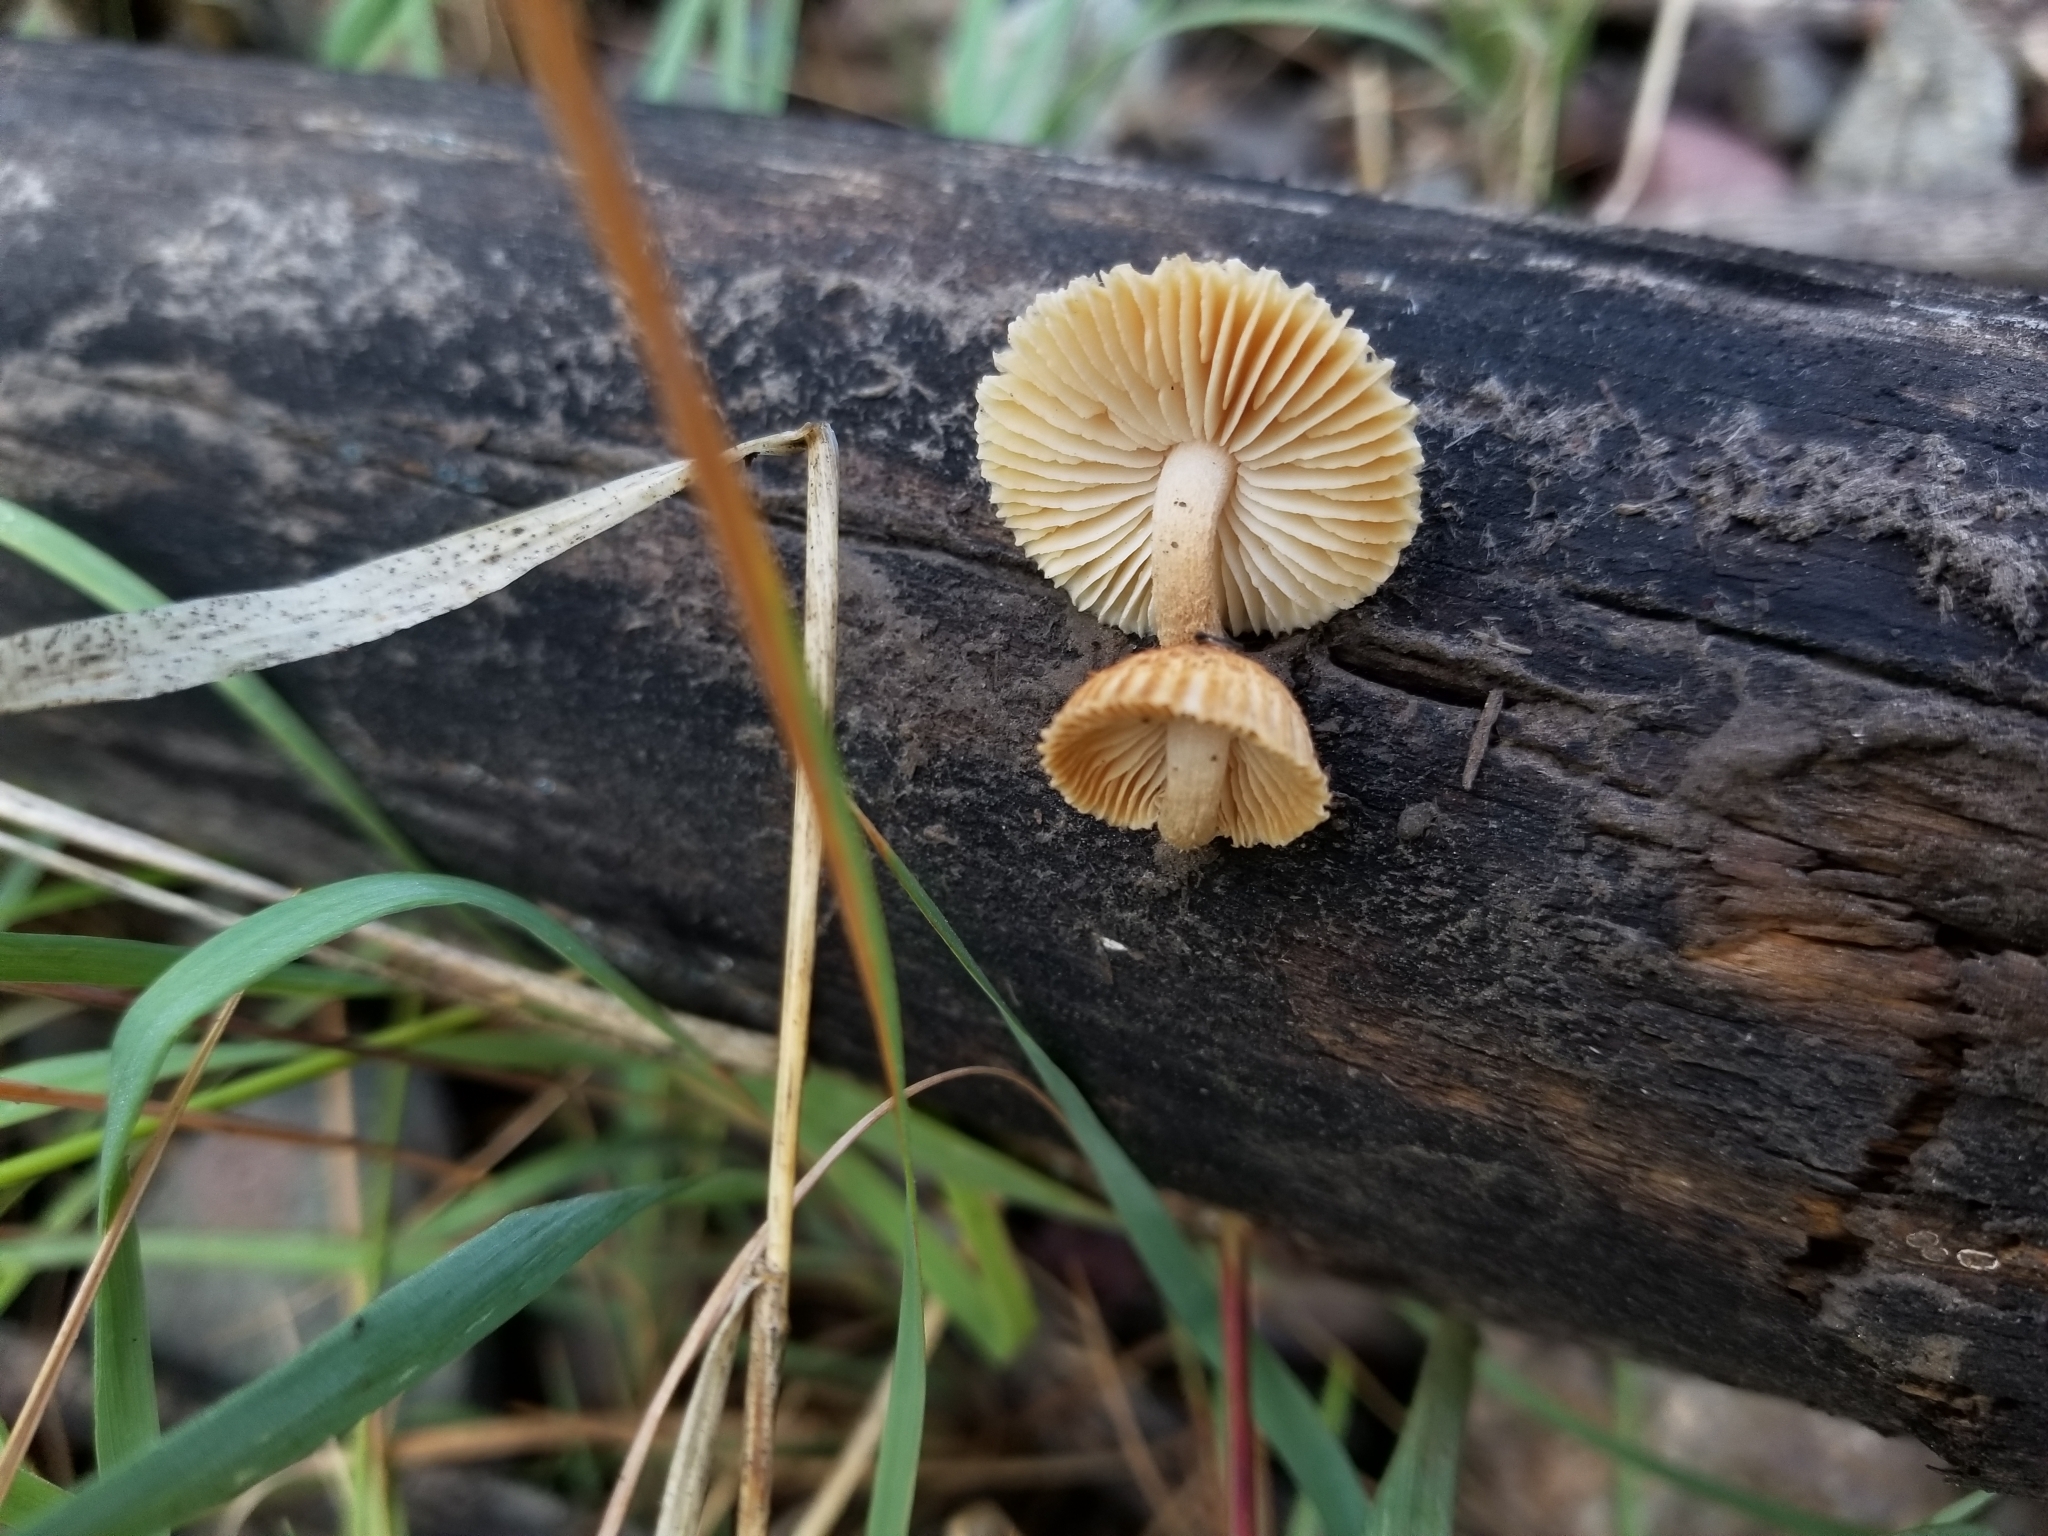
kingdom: Fungi
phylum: Basidiomycota
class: Agaricomycetes
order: Gloeophyllales
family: Gloeophyllaceae
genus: Heliocybe
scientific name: Heliocybe sulcata
